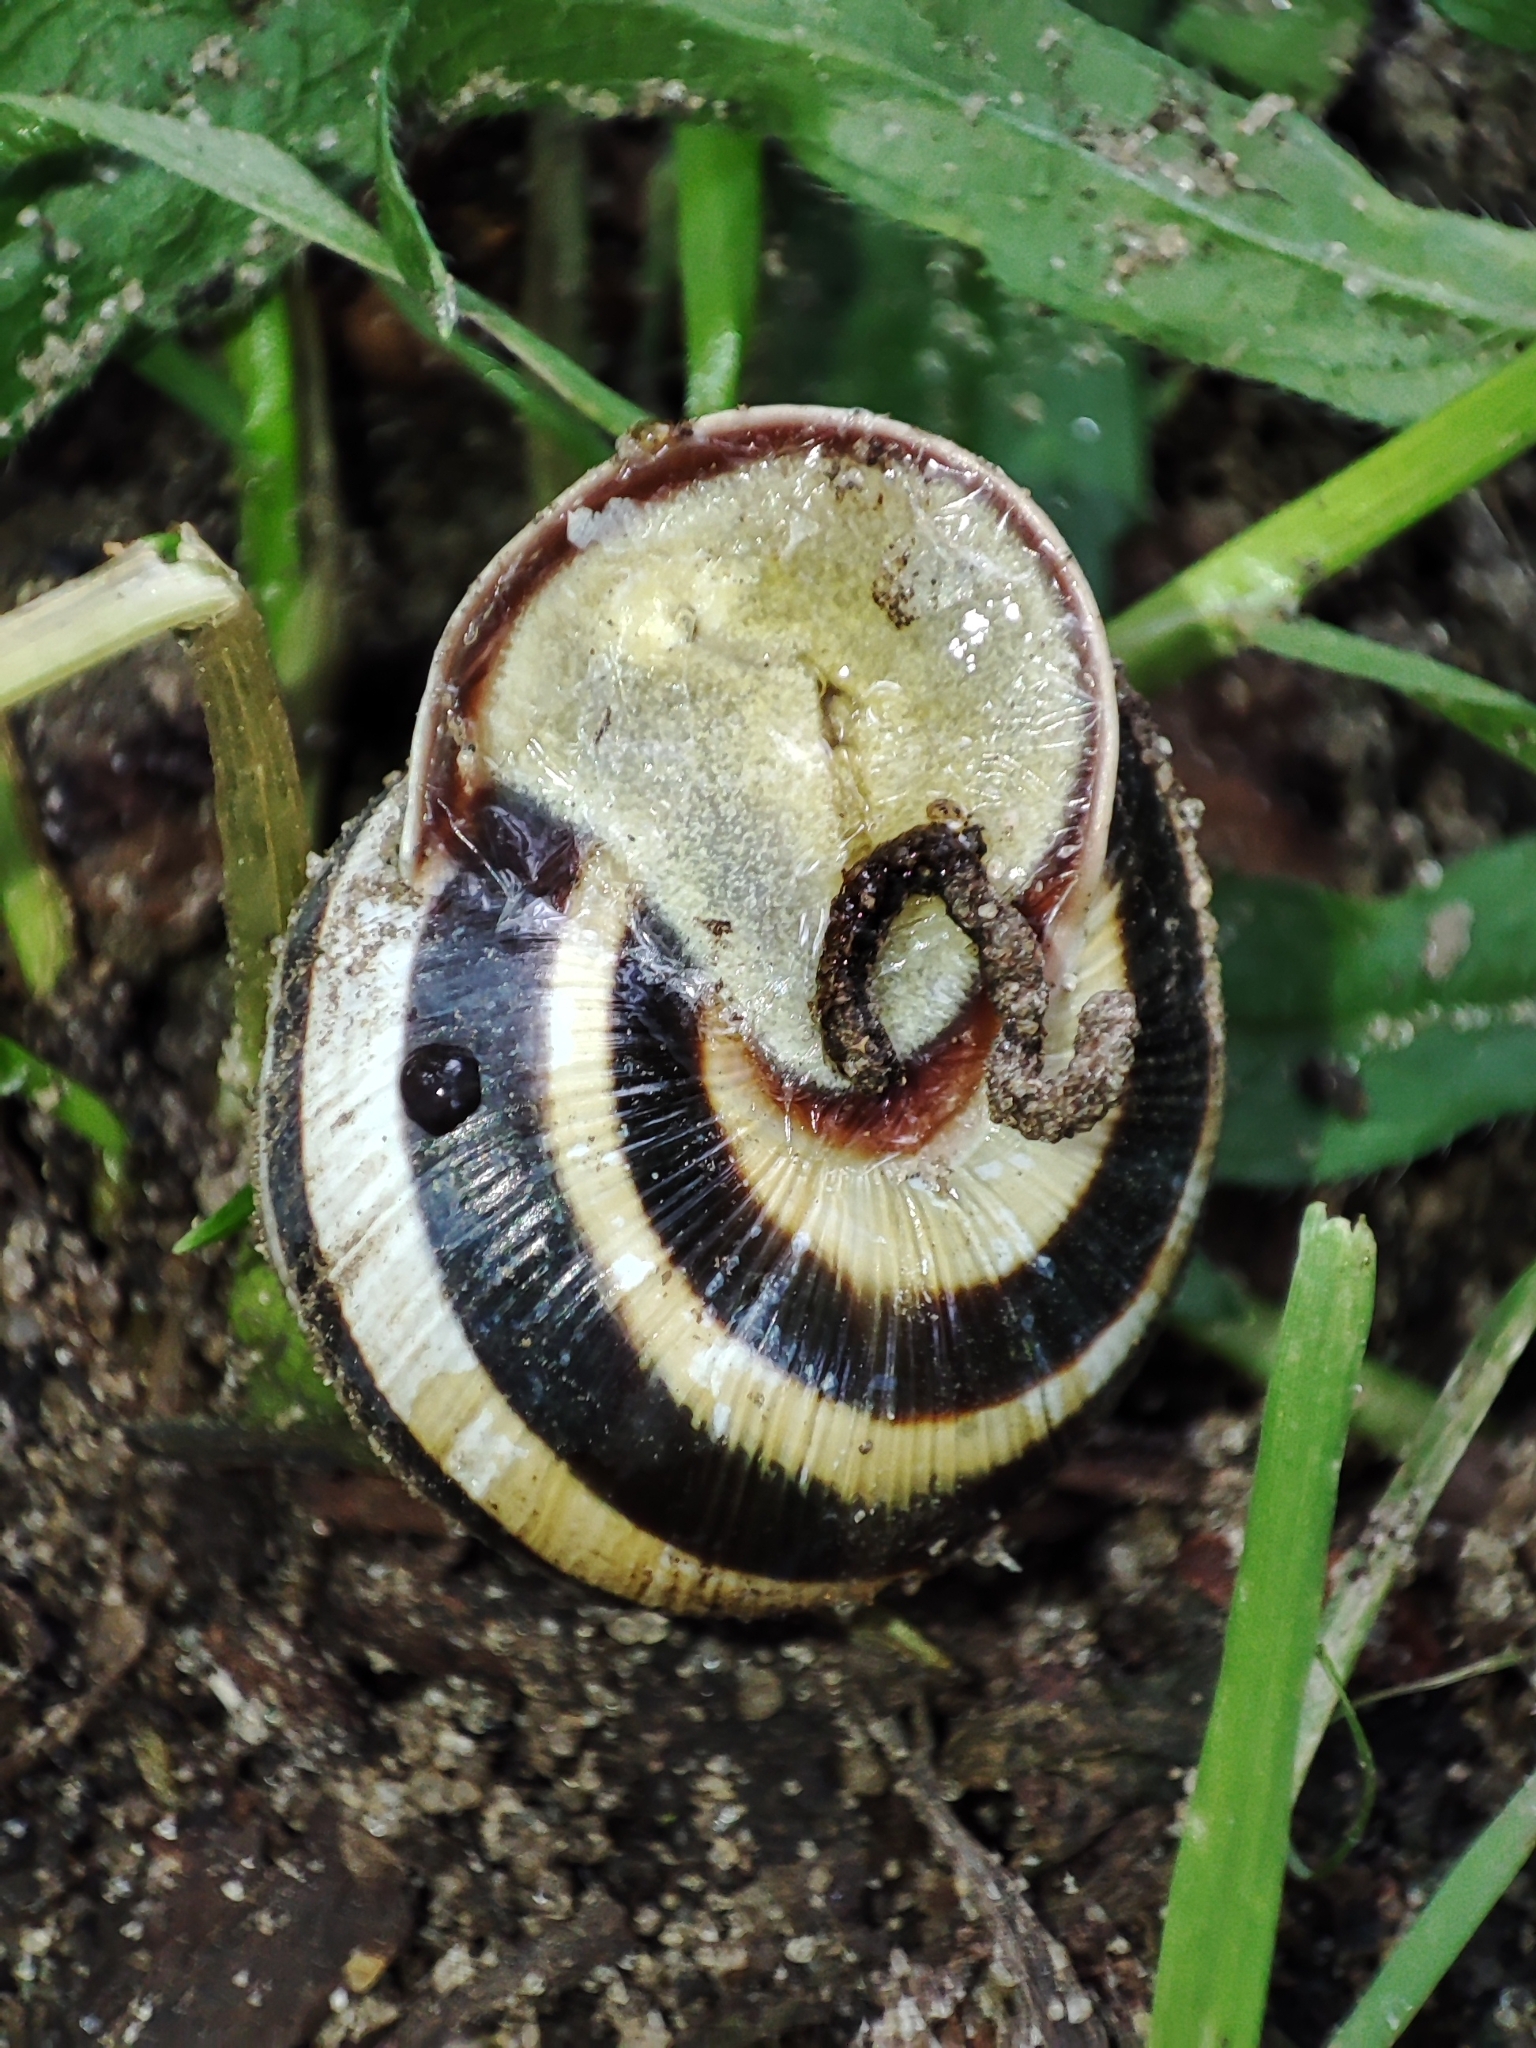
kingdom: Animalia
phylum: Mollusca
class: Gastropoda
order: Stylommatophora
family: Helicidae
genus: Caucasotachea
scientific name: Caucasotachea vindobonensis
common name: European helicid land snail
